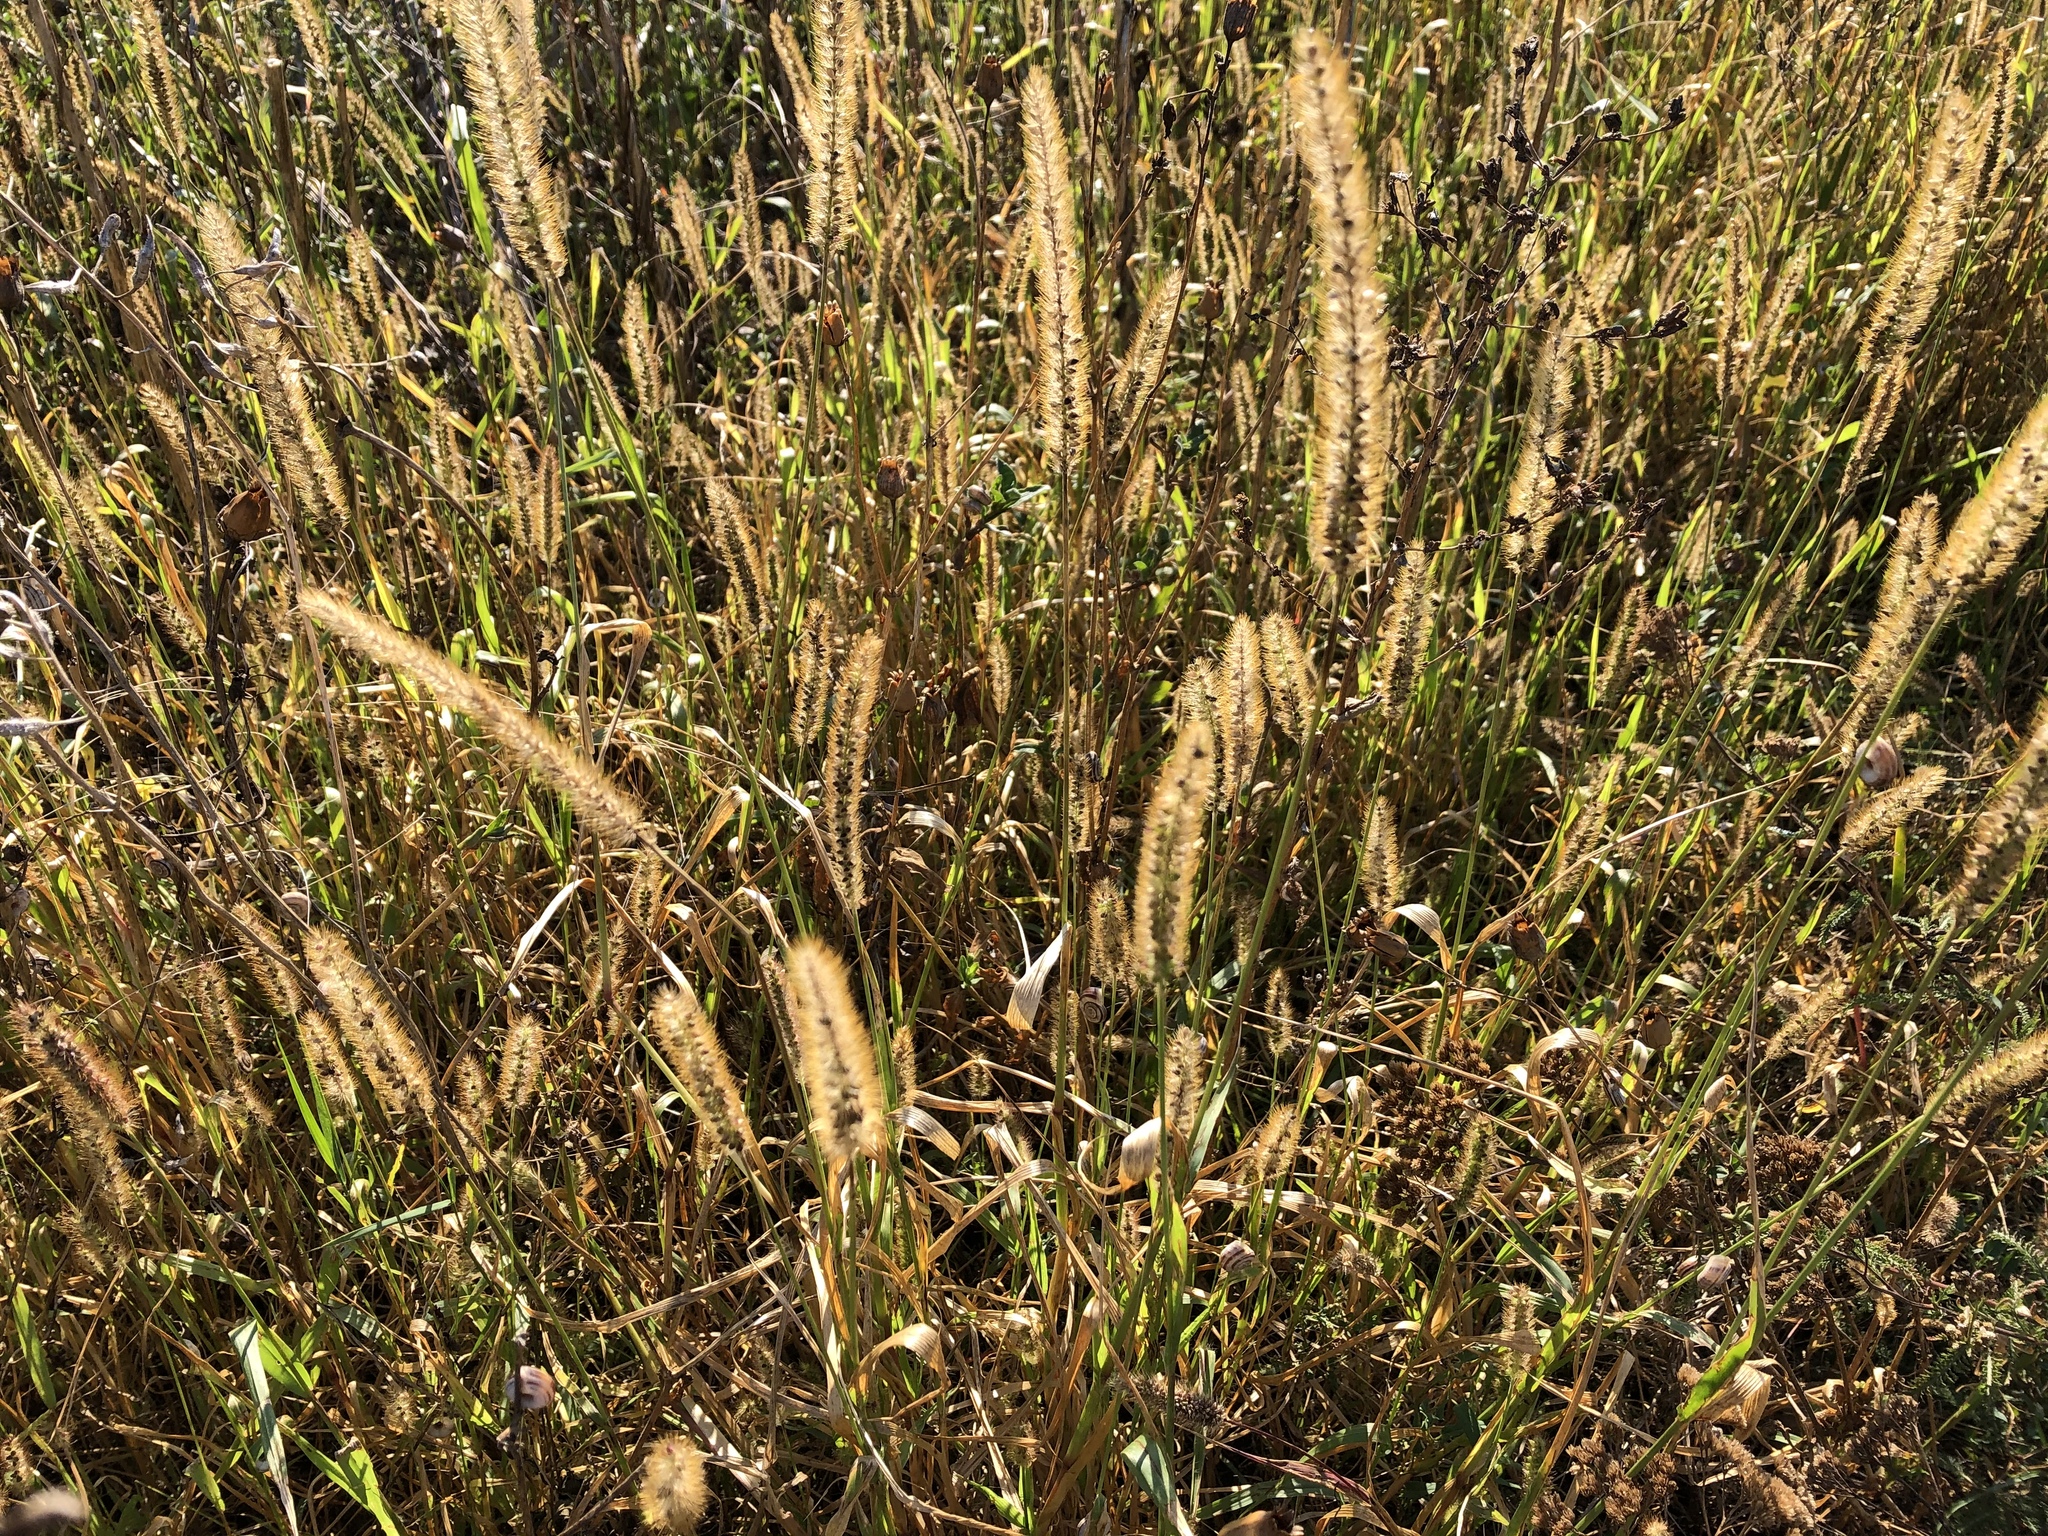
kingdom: Plantae
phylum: Tracheophyta
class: Liliopsida
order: Poales
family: Poaceae
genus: Setaria
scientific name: Setaria pumila
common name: Yellow bristle-grass
